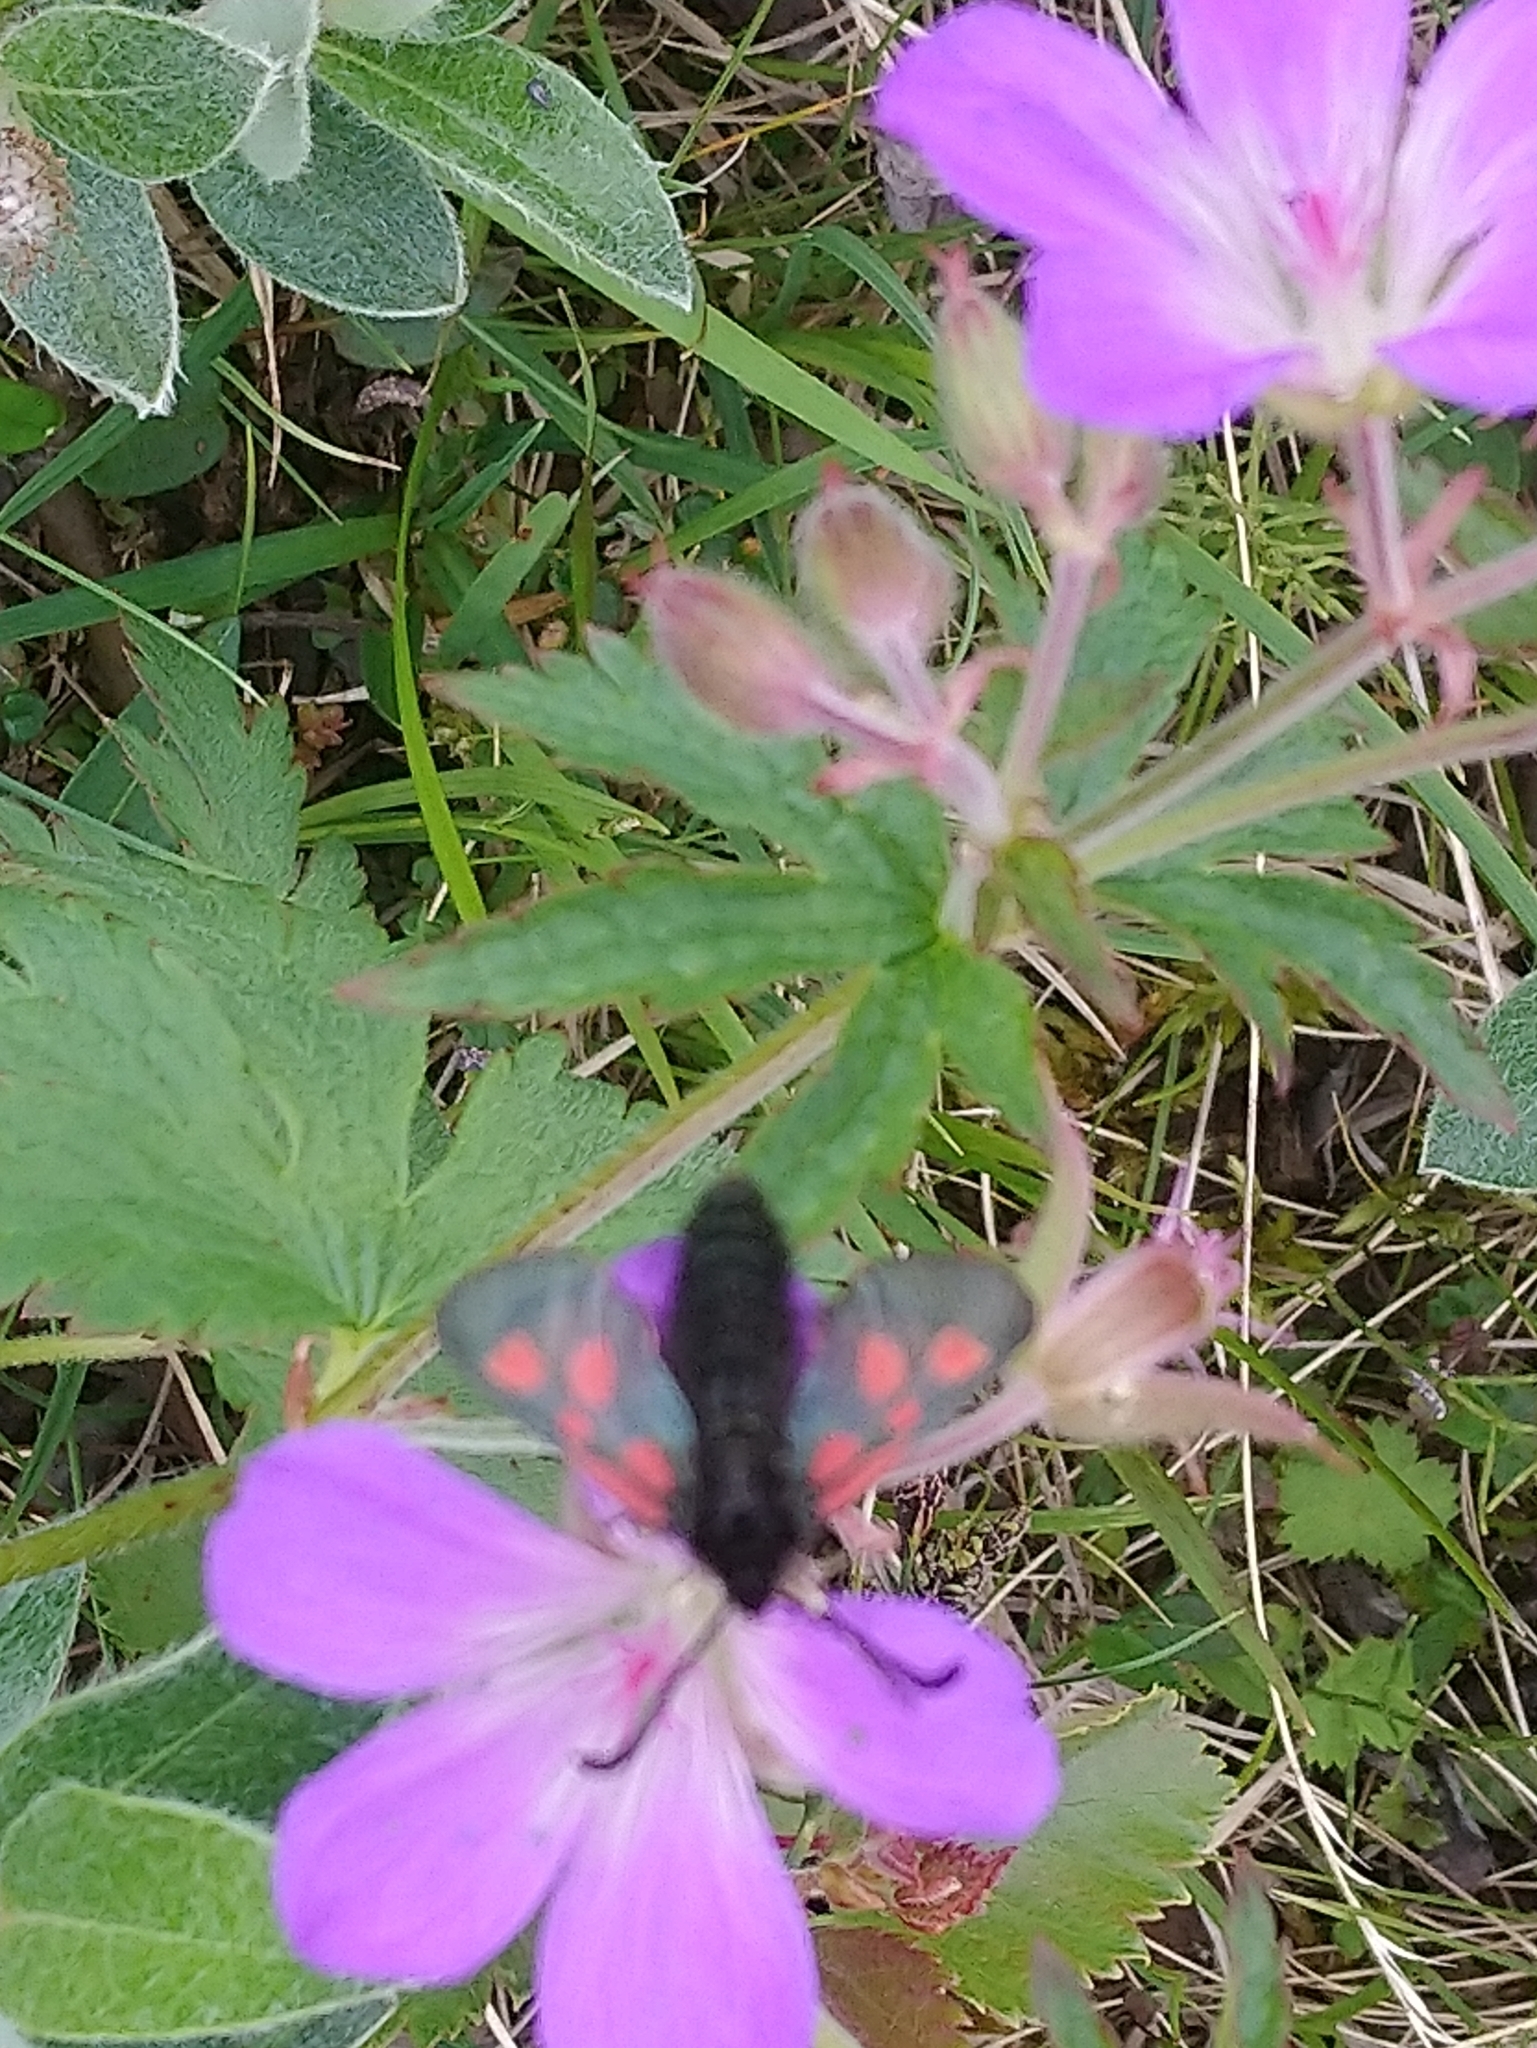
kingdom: Animalia
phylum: Arthropoda
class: Insecta
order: Lepidoptera
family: Zygaenidae
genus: Zygaena
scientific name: Zygaena exulans
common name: Scotch burnet
